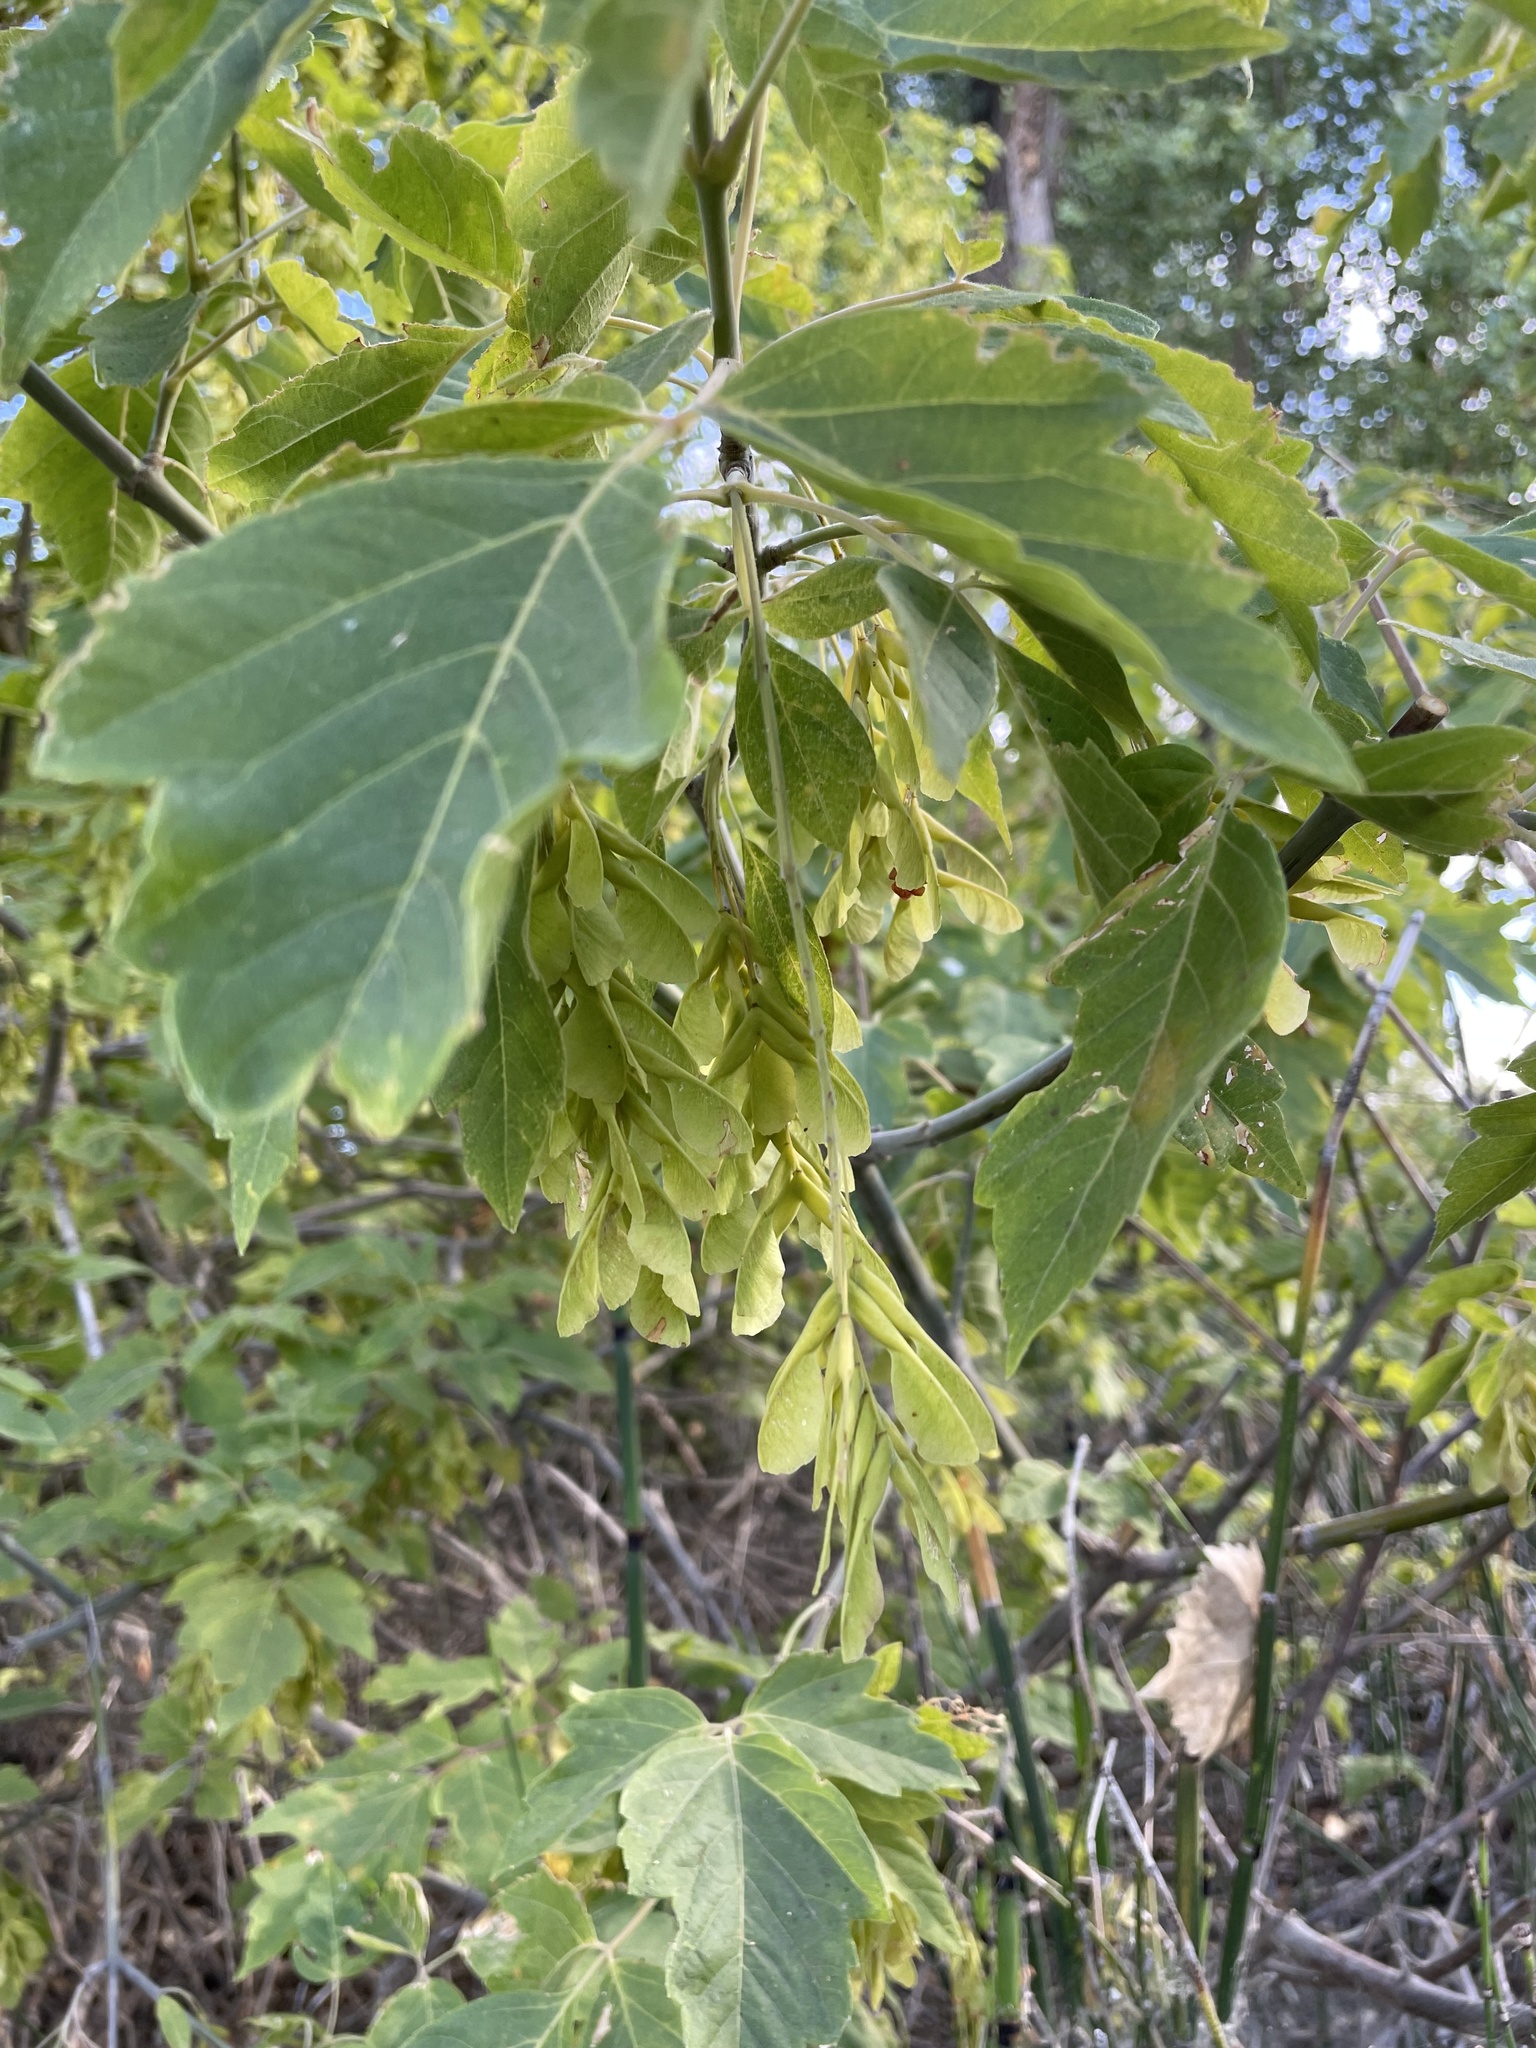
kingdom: Plantae
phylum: Tracheophyta
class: Magnoliopsida
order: Sapindales
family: Sapindaceae
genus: Acer
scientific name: Acer negundo
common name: Ashleaf maple
